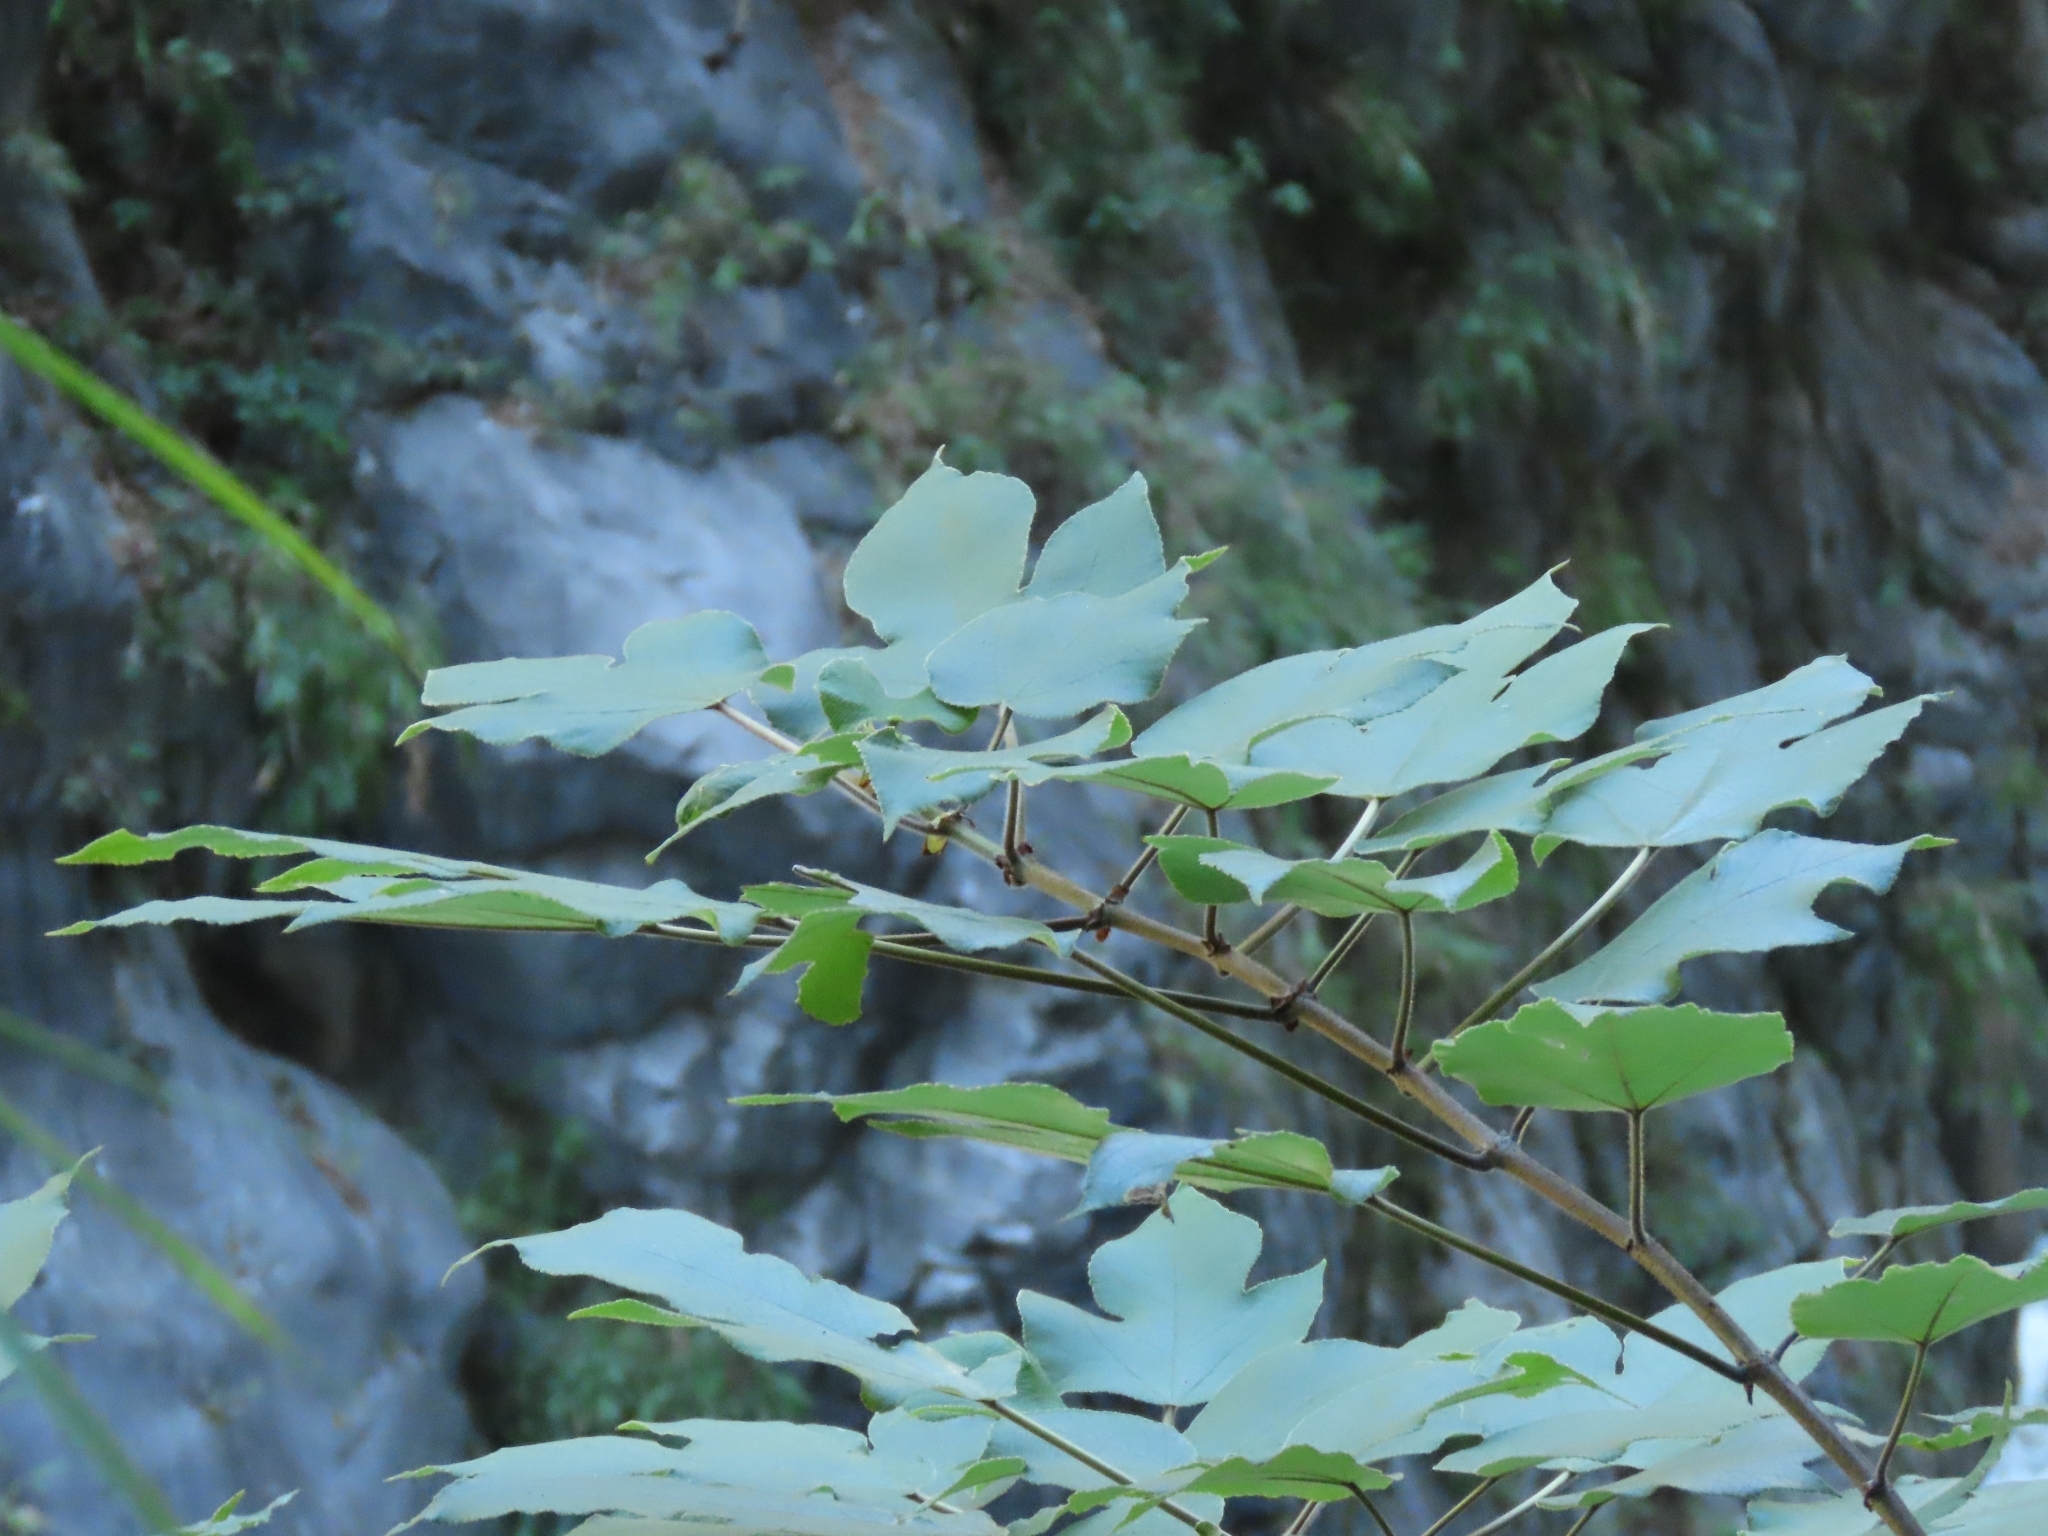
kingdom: Plantae
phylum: Tracheophyta
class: Magnoliopsida
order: Rosales
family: Moraceae
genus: Broussonetia
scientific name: Broussonetia papyrifera
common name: Paper mulberry
